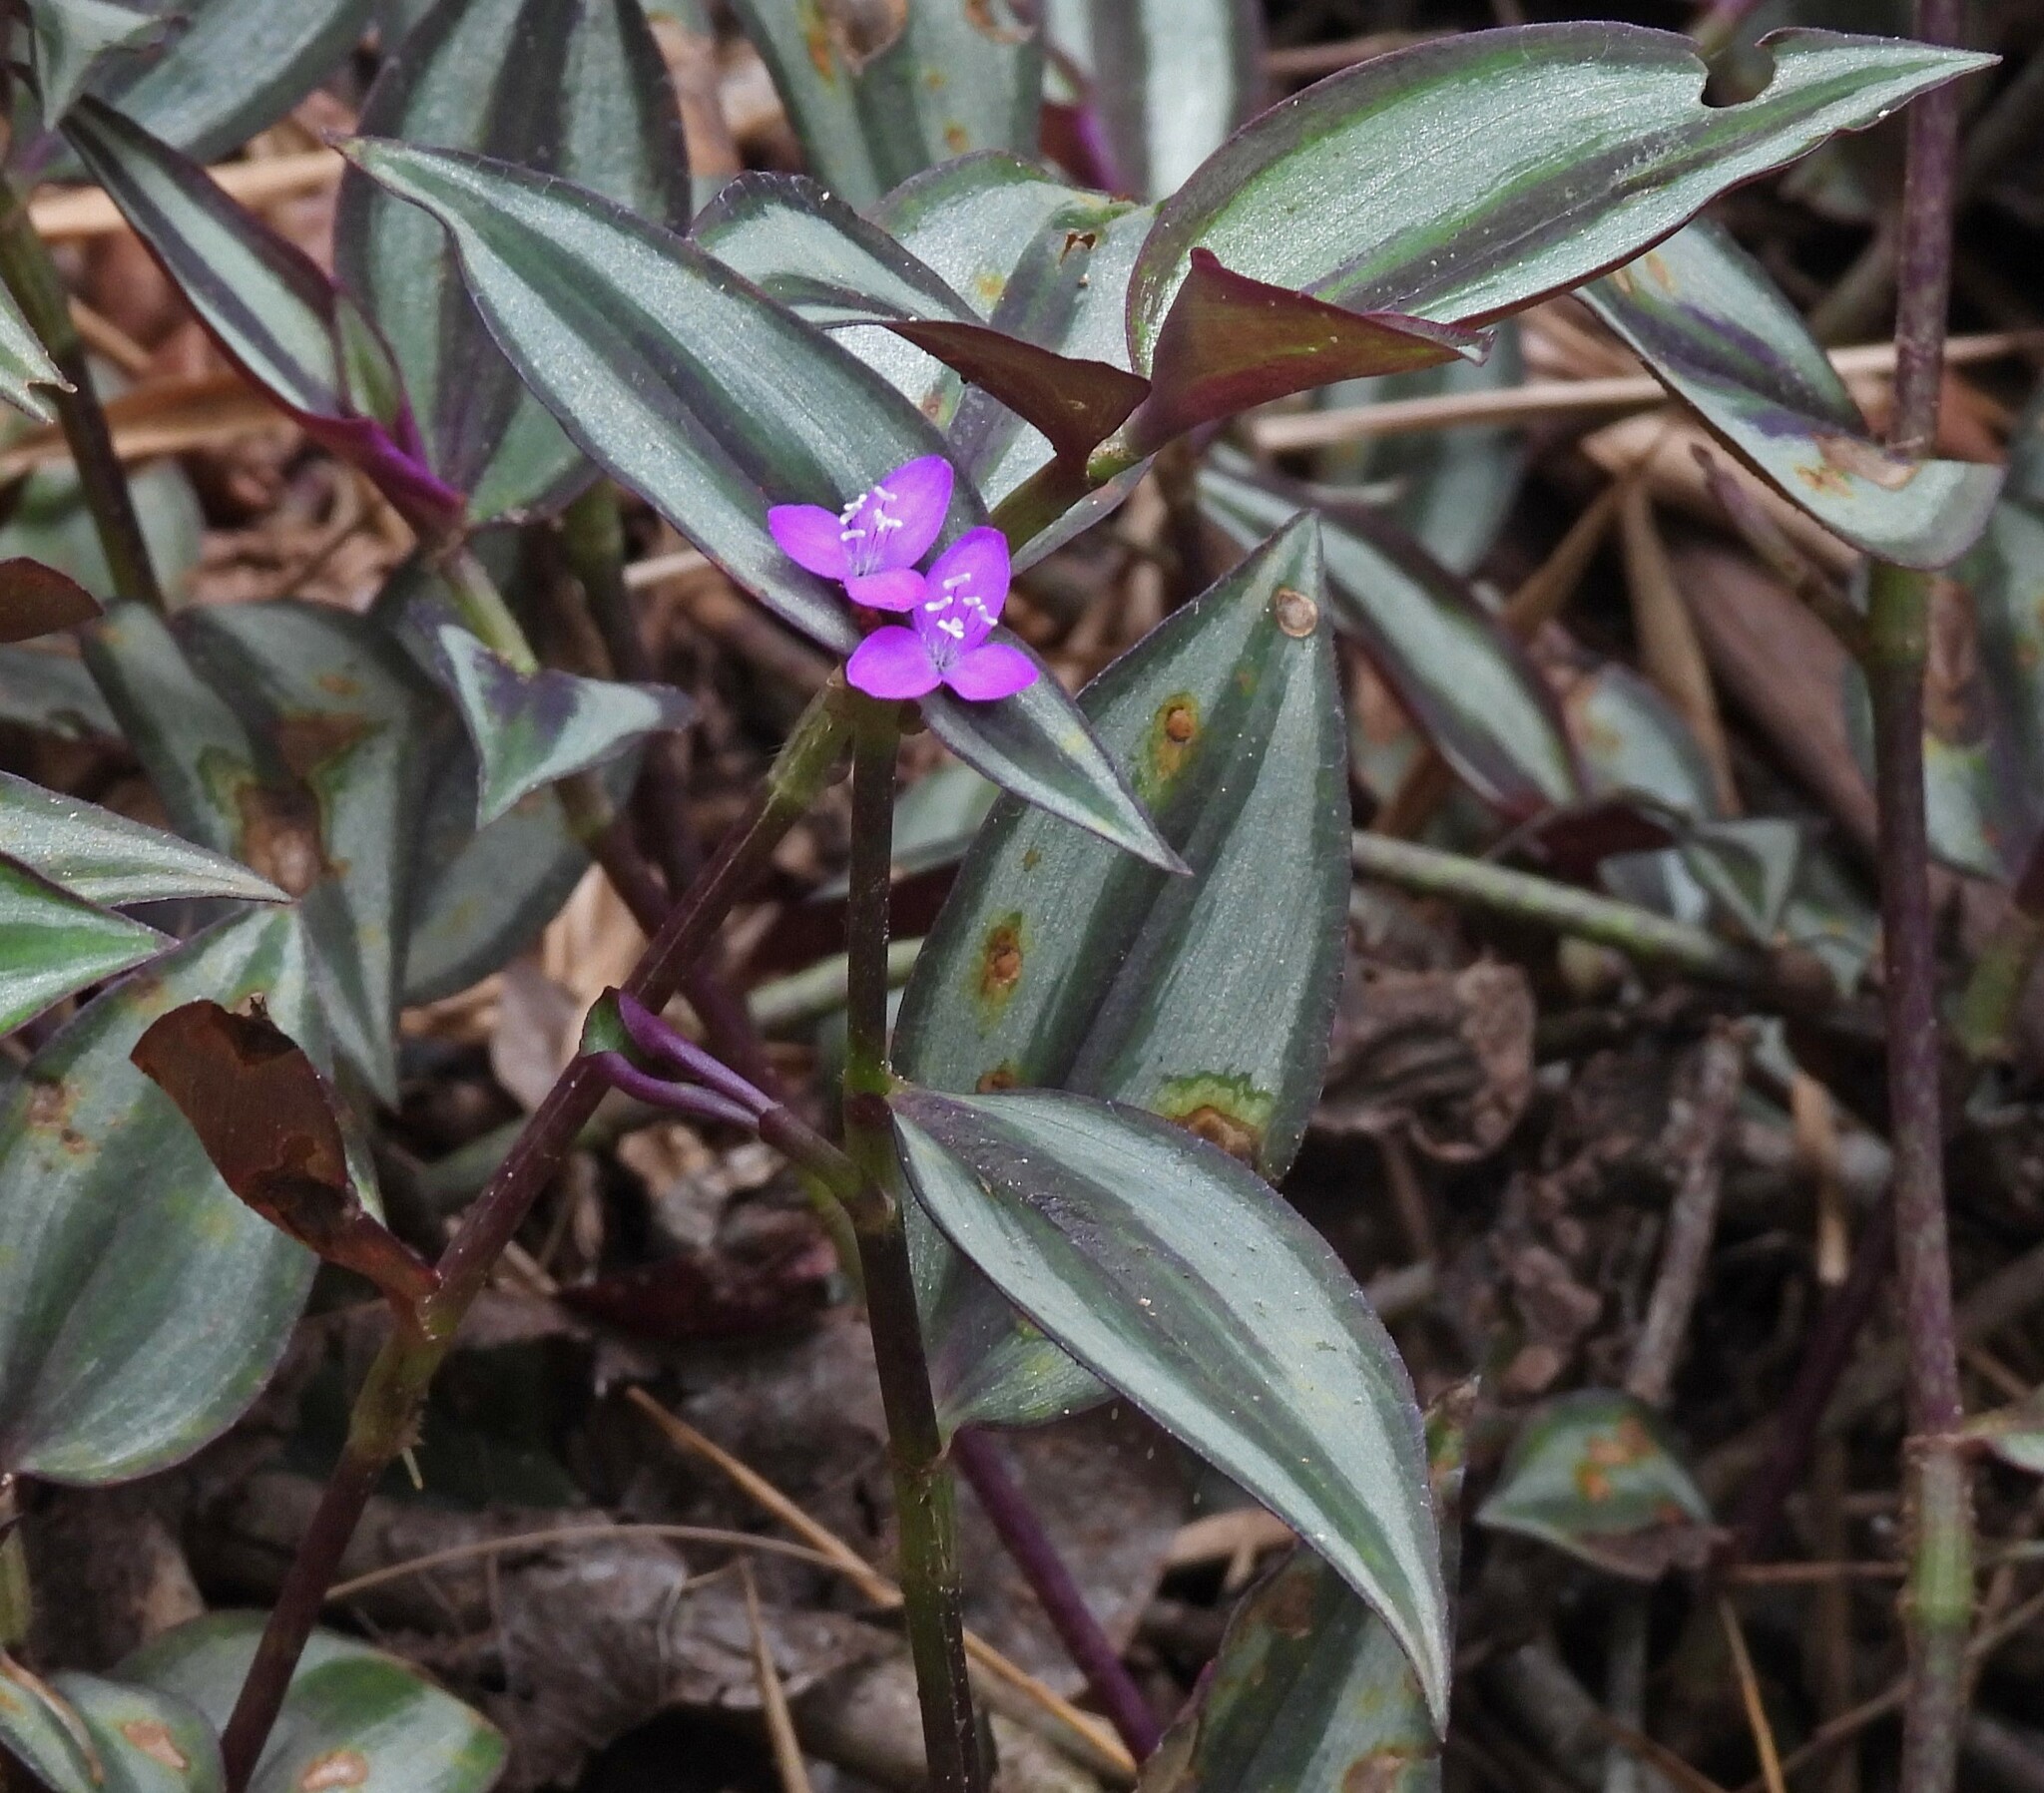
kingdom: Plantae
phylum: Tracheophyta
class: Liliopsida
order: Commelinales
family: Commelinaceae
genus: Tradescantia
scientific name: Tradescantia zebrina
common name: Inchplant
